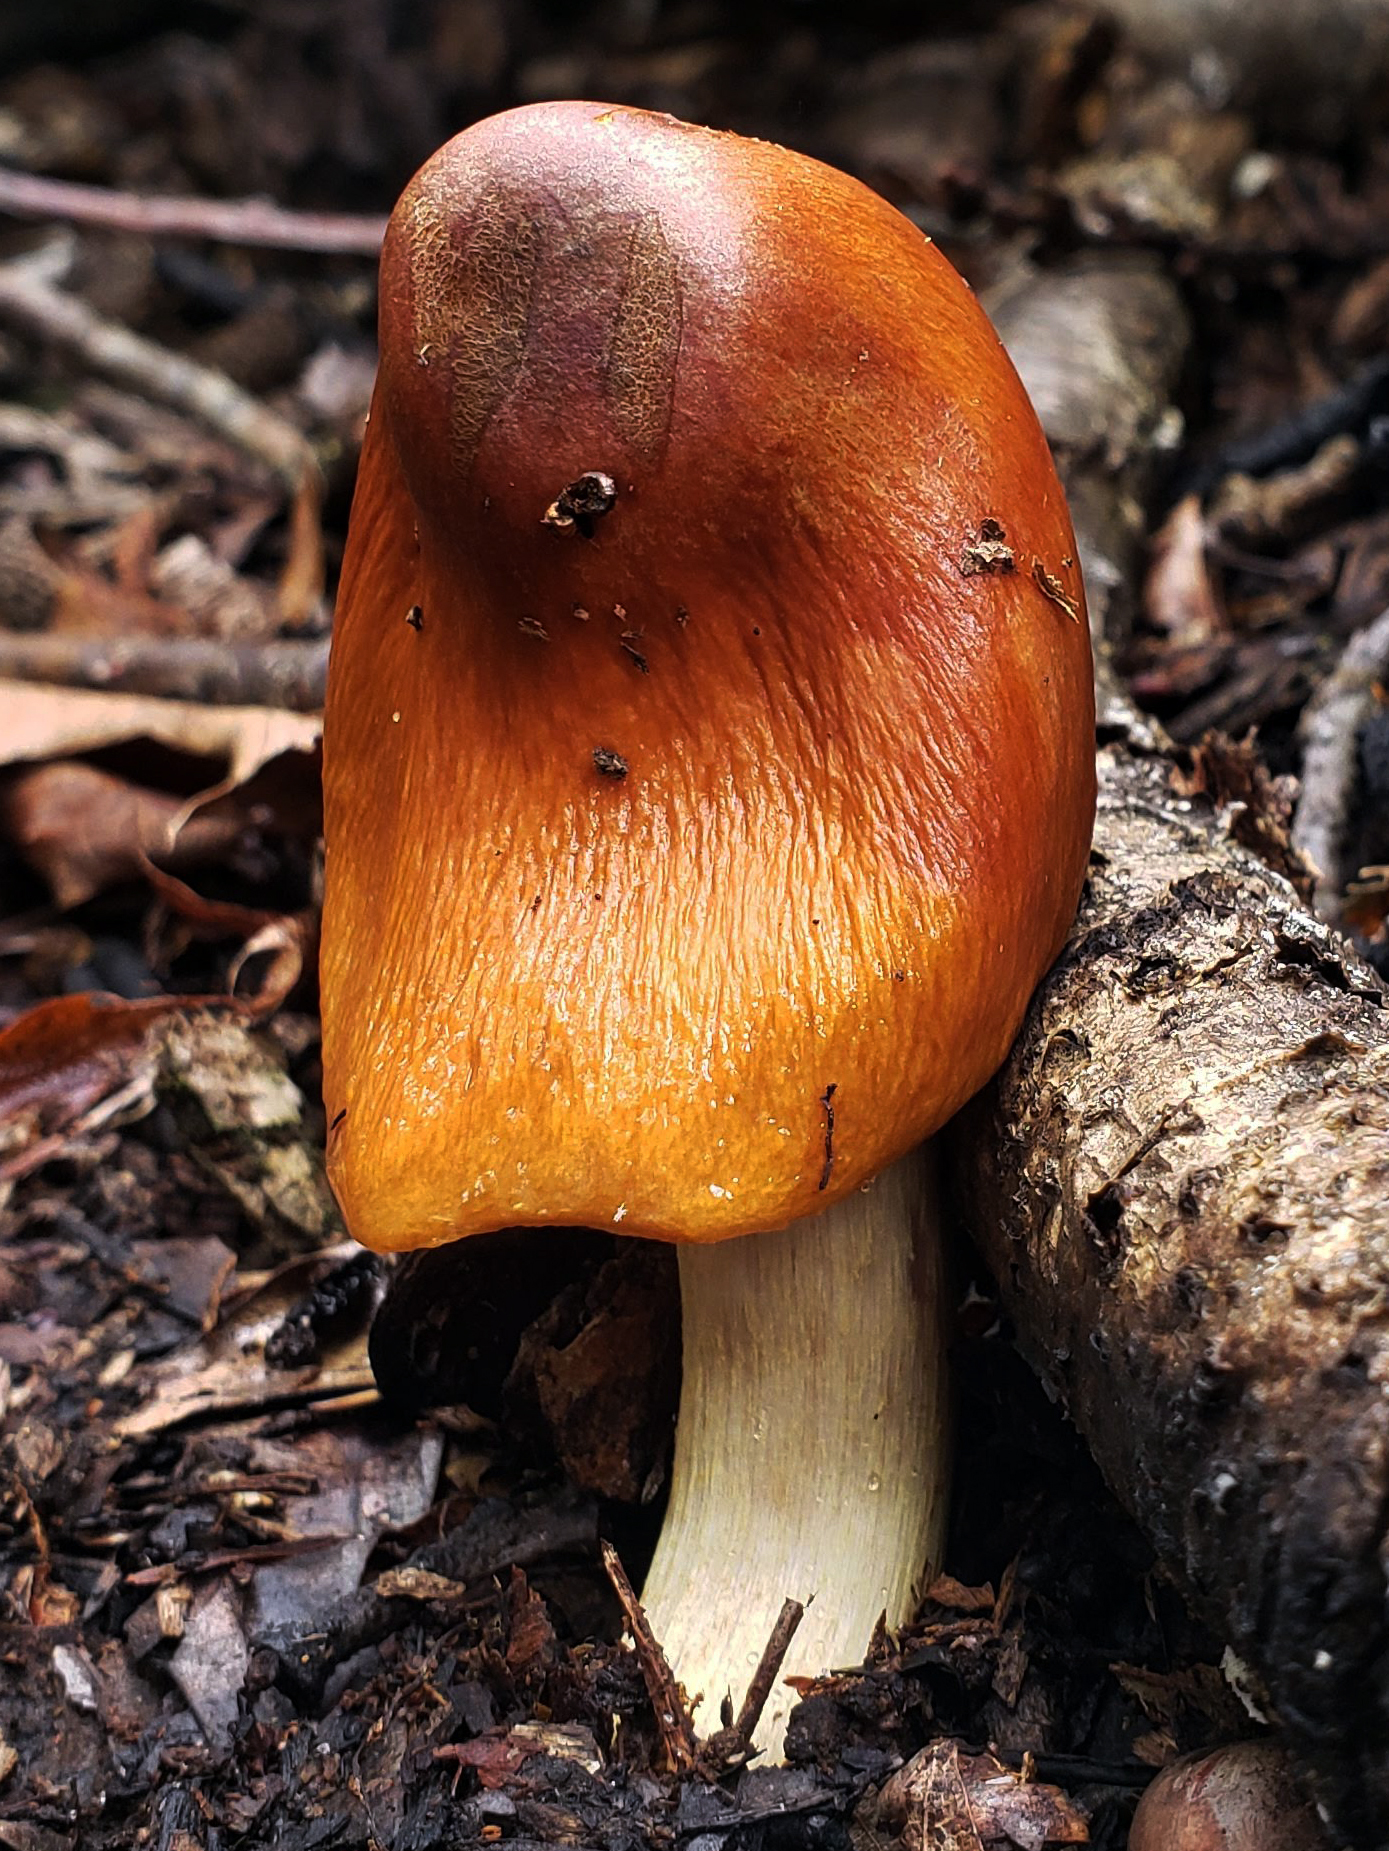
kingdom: Fungi
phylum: Basidiomycota
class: Agaricomycetes
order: Agaricales
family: Cortinariaceae
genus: Cortinarius
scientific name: Cortinarius corrugatus
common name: Wrinkled cortinarius
